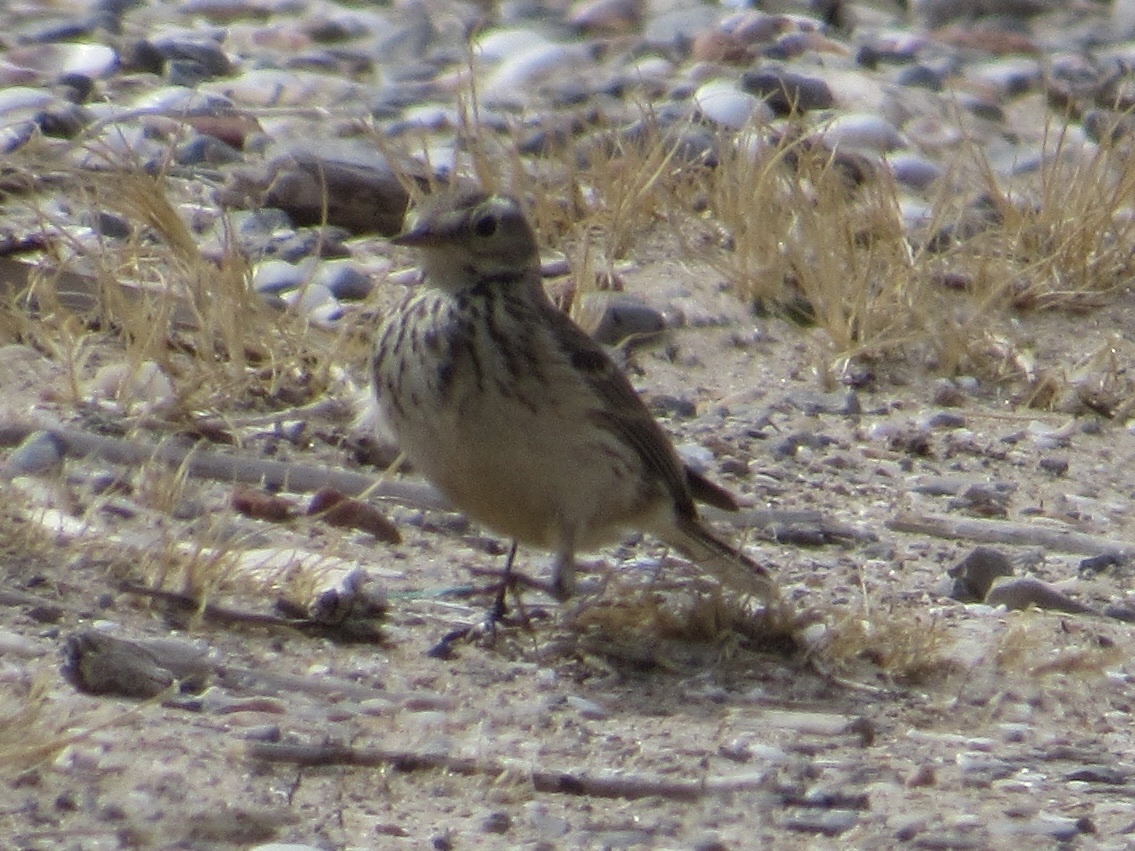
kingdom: Animalia
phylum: Chordata
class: Aves
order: Passeriformes
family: Motacillidae
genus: Anthus
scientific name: Anthus rubescens
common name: Buff-bellied pipit
